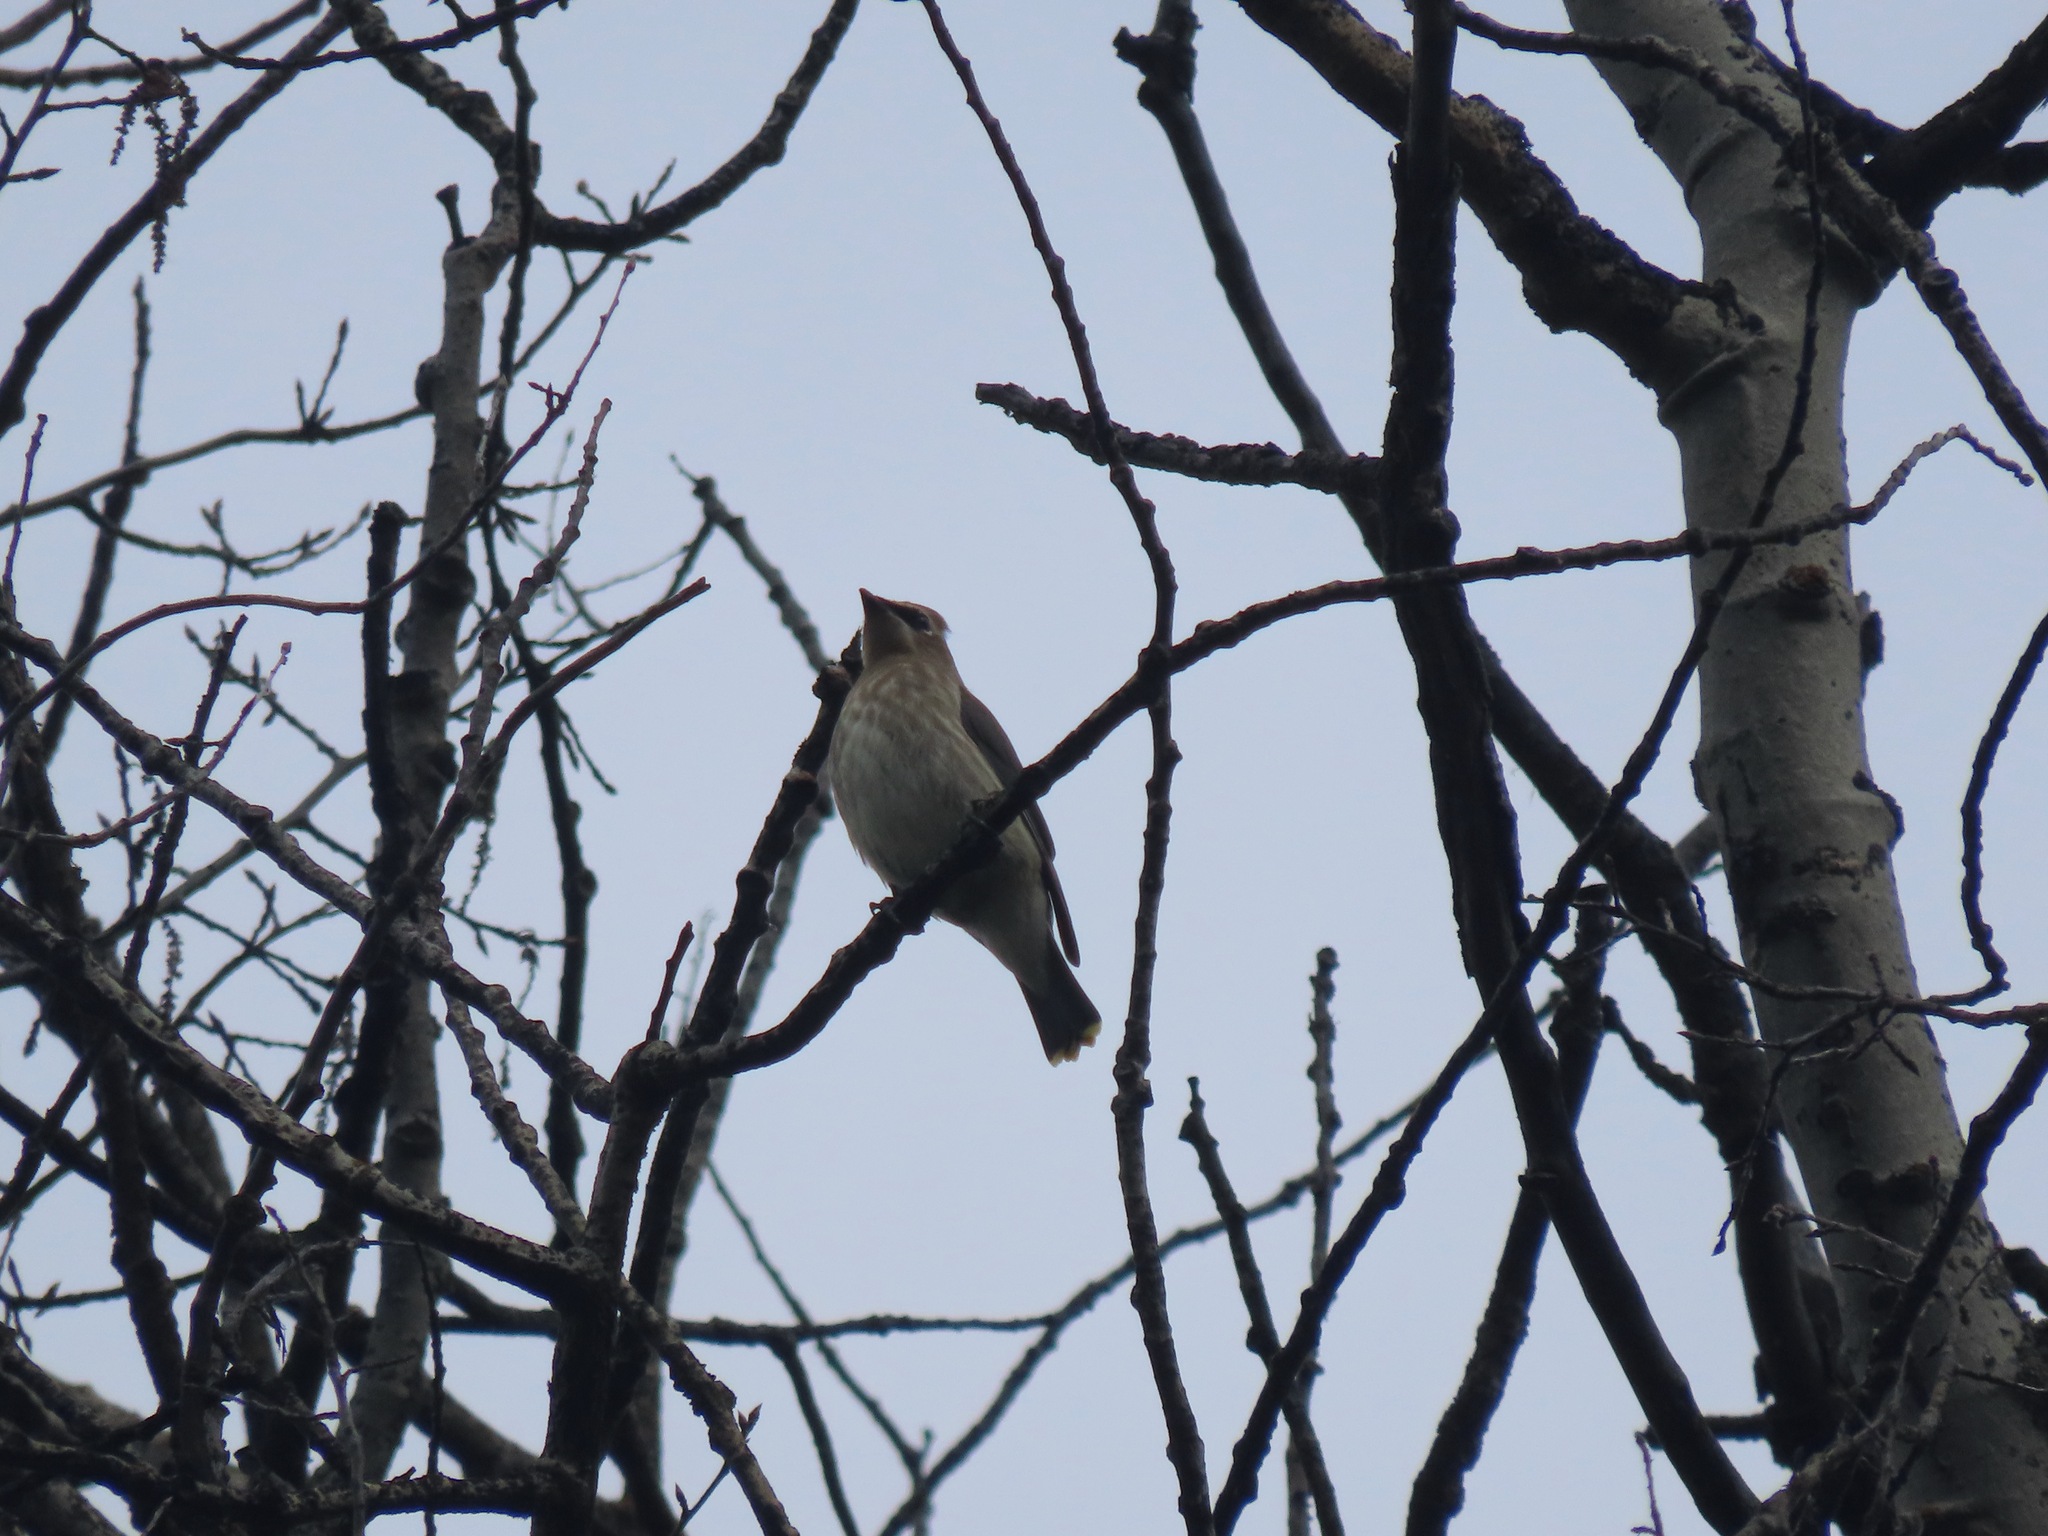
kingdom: Animalia
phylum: Chordata
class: Aves
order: Passeriformes
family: Bombycillidae
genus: Bombycilla
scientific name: Bombycilla cedrorum
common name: Cedar waxwing
